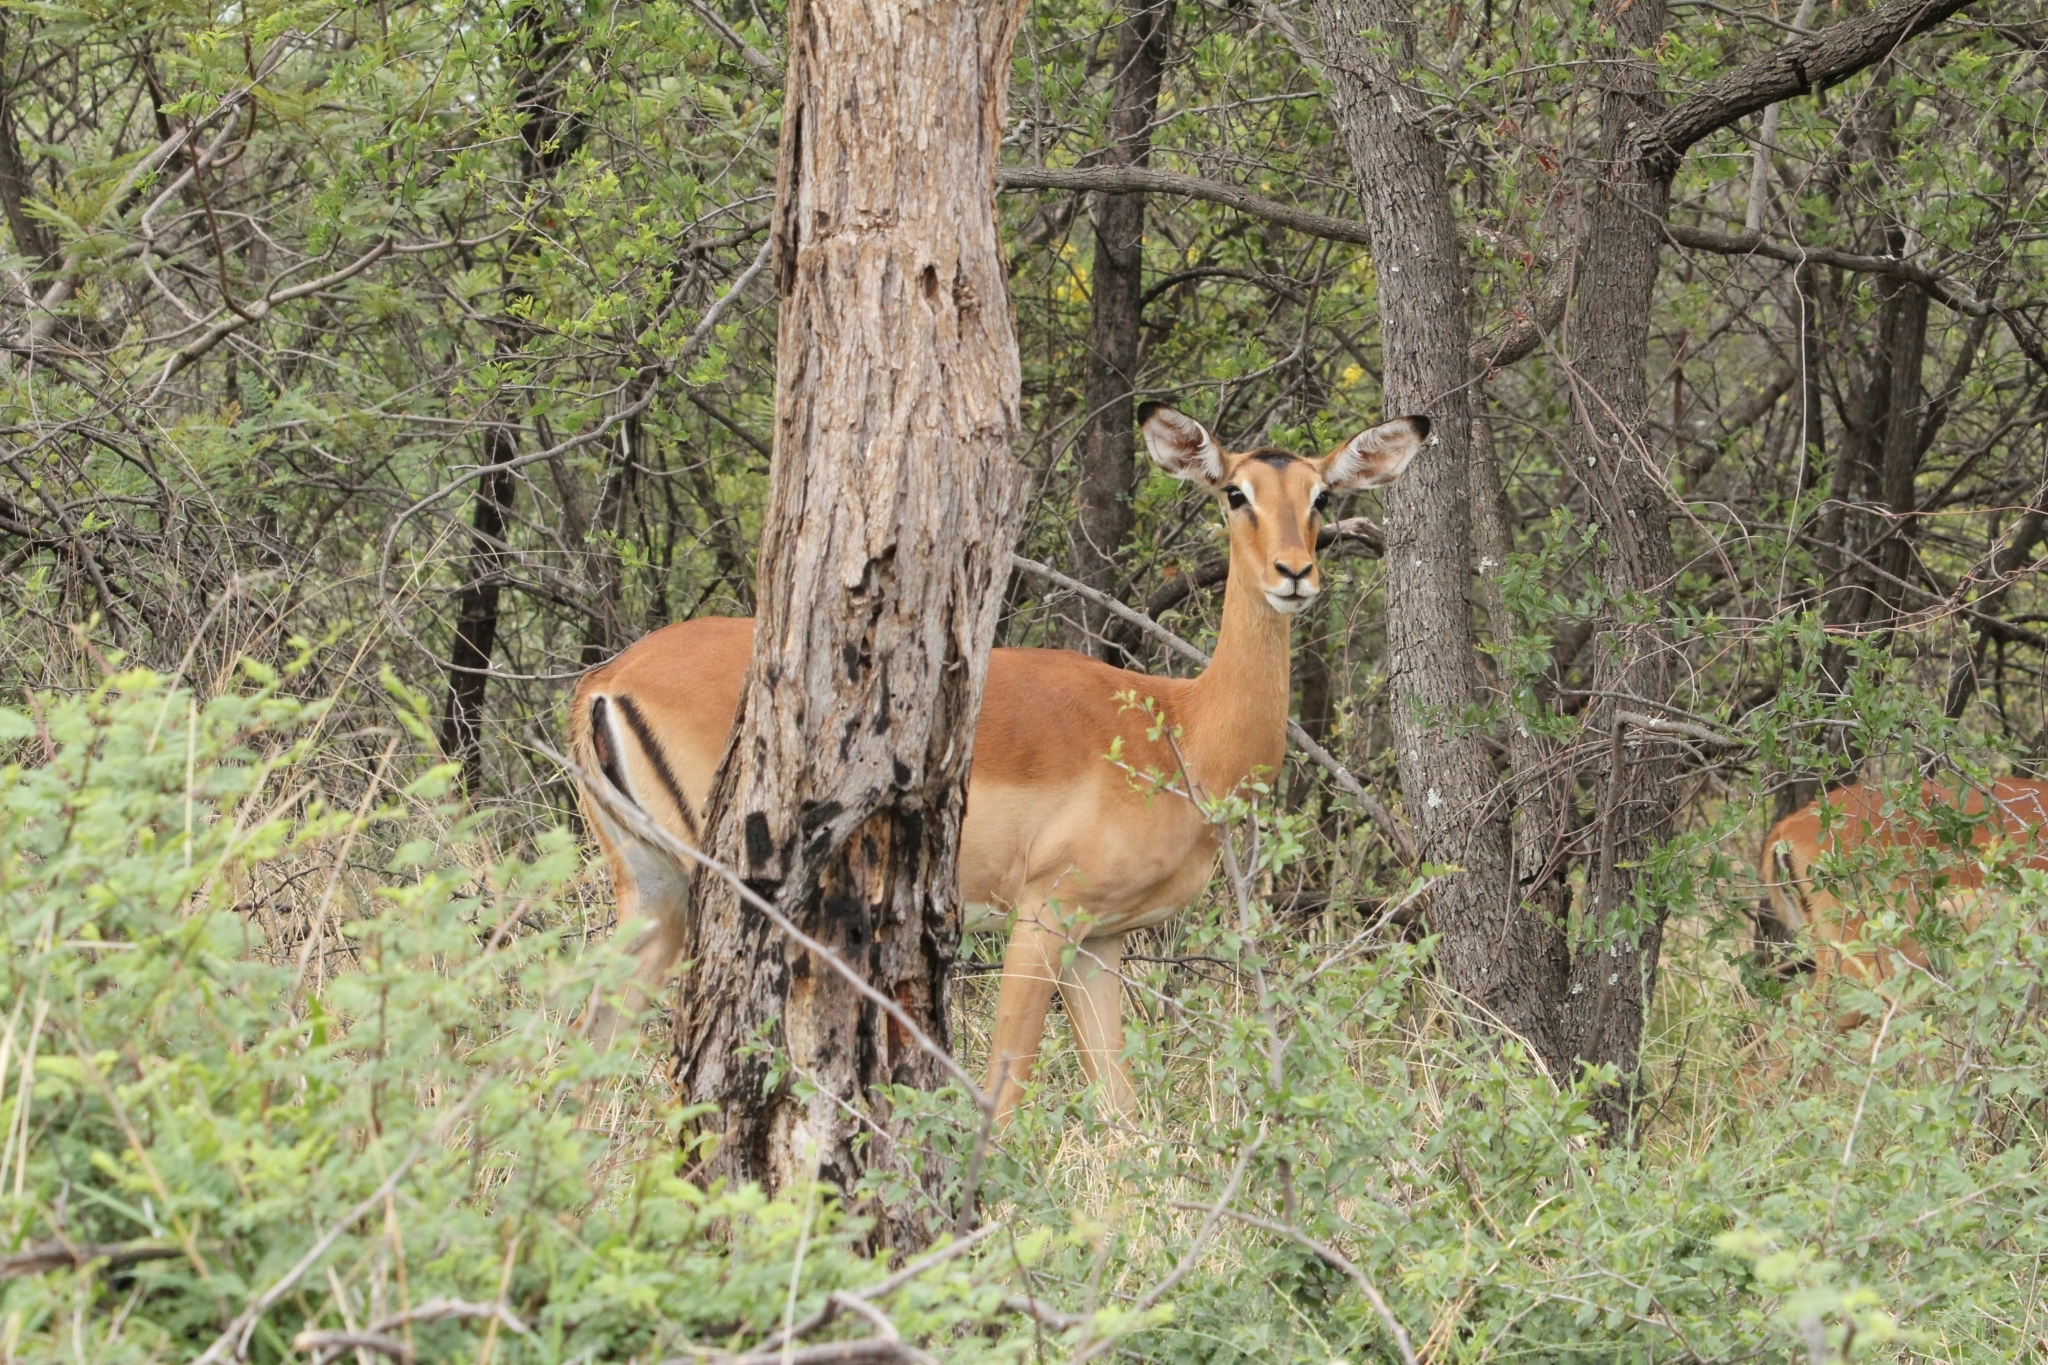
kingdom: Animalia
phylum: Chordata
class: Mammalia
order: Artiodactyla
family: Bovidae
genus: Aepyceros
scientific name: Aepyceros melampus
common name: Impala
